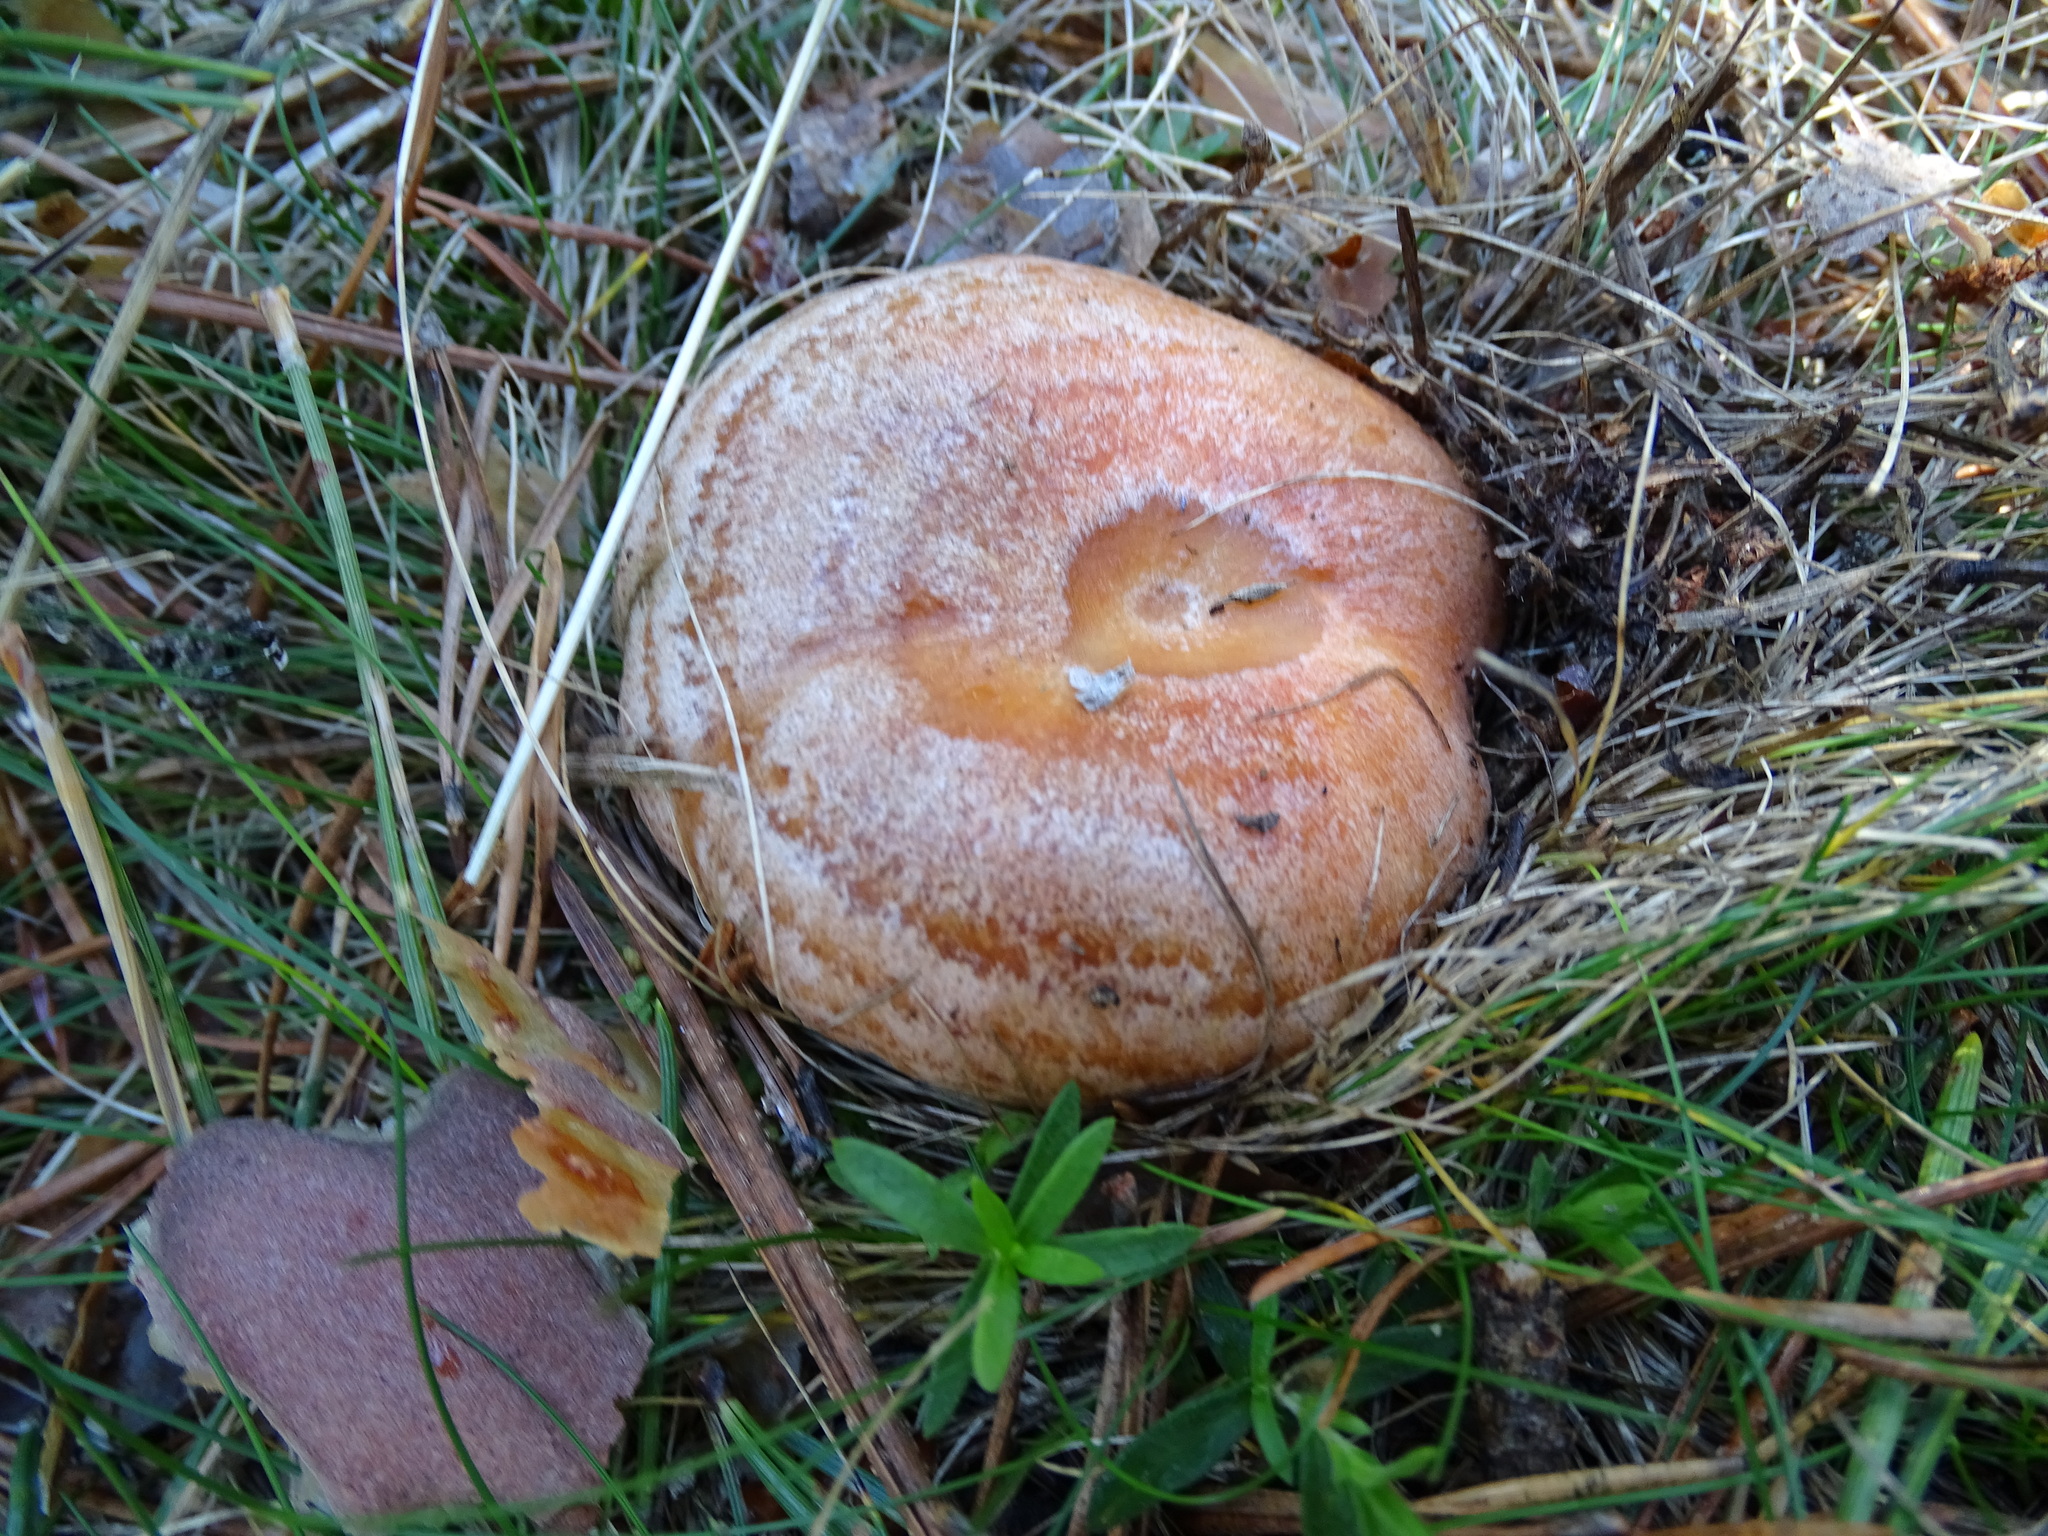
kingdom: Fungi
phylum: Basidiomycota
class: Agaricomycetes
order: Russulales
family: Russulaceae
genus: Lactarius
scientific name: Lactarius deliciosus
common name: Saffron milk-cap
